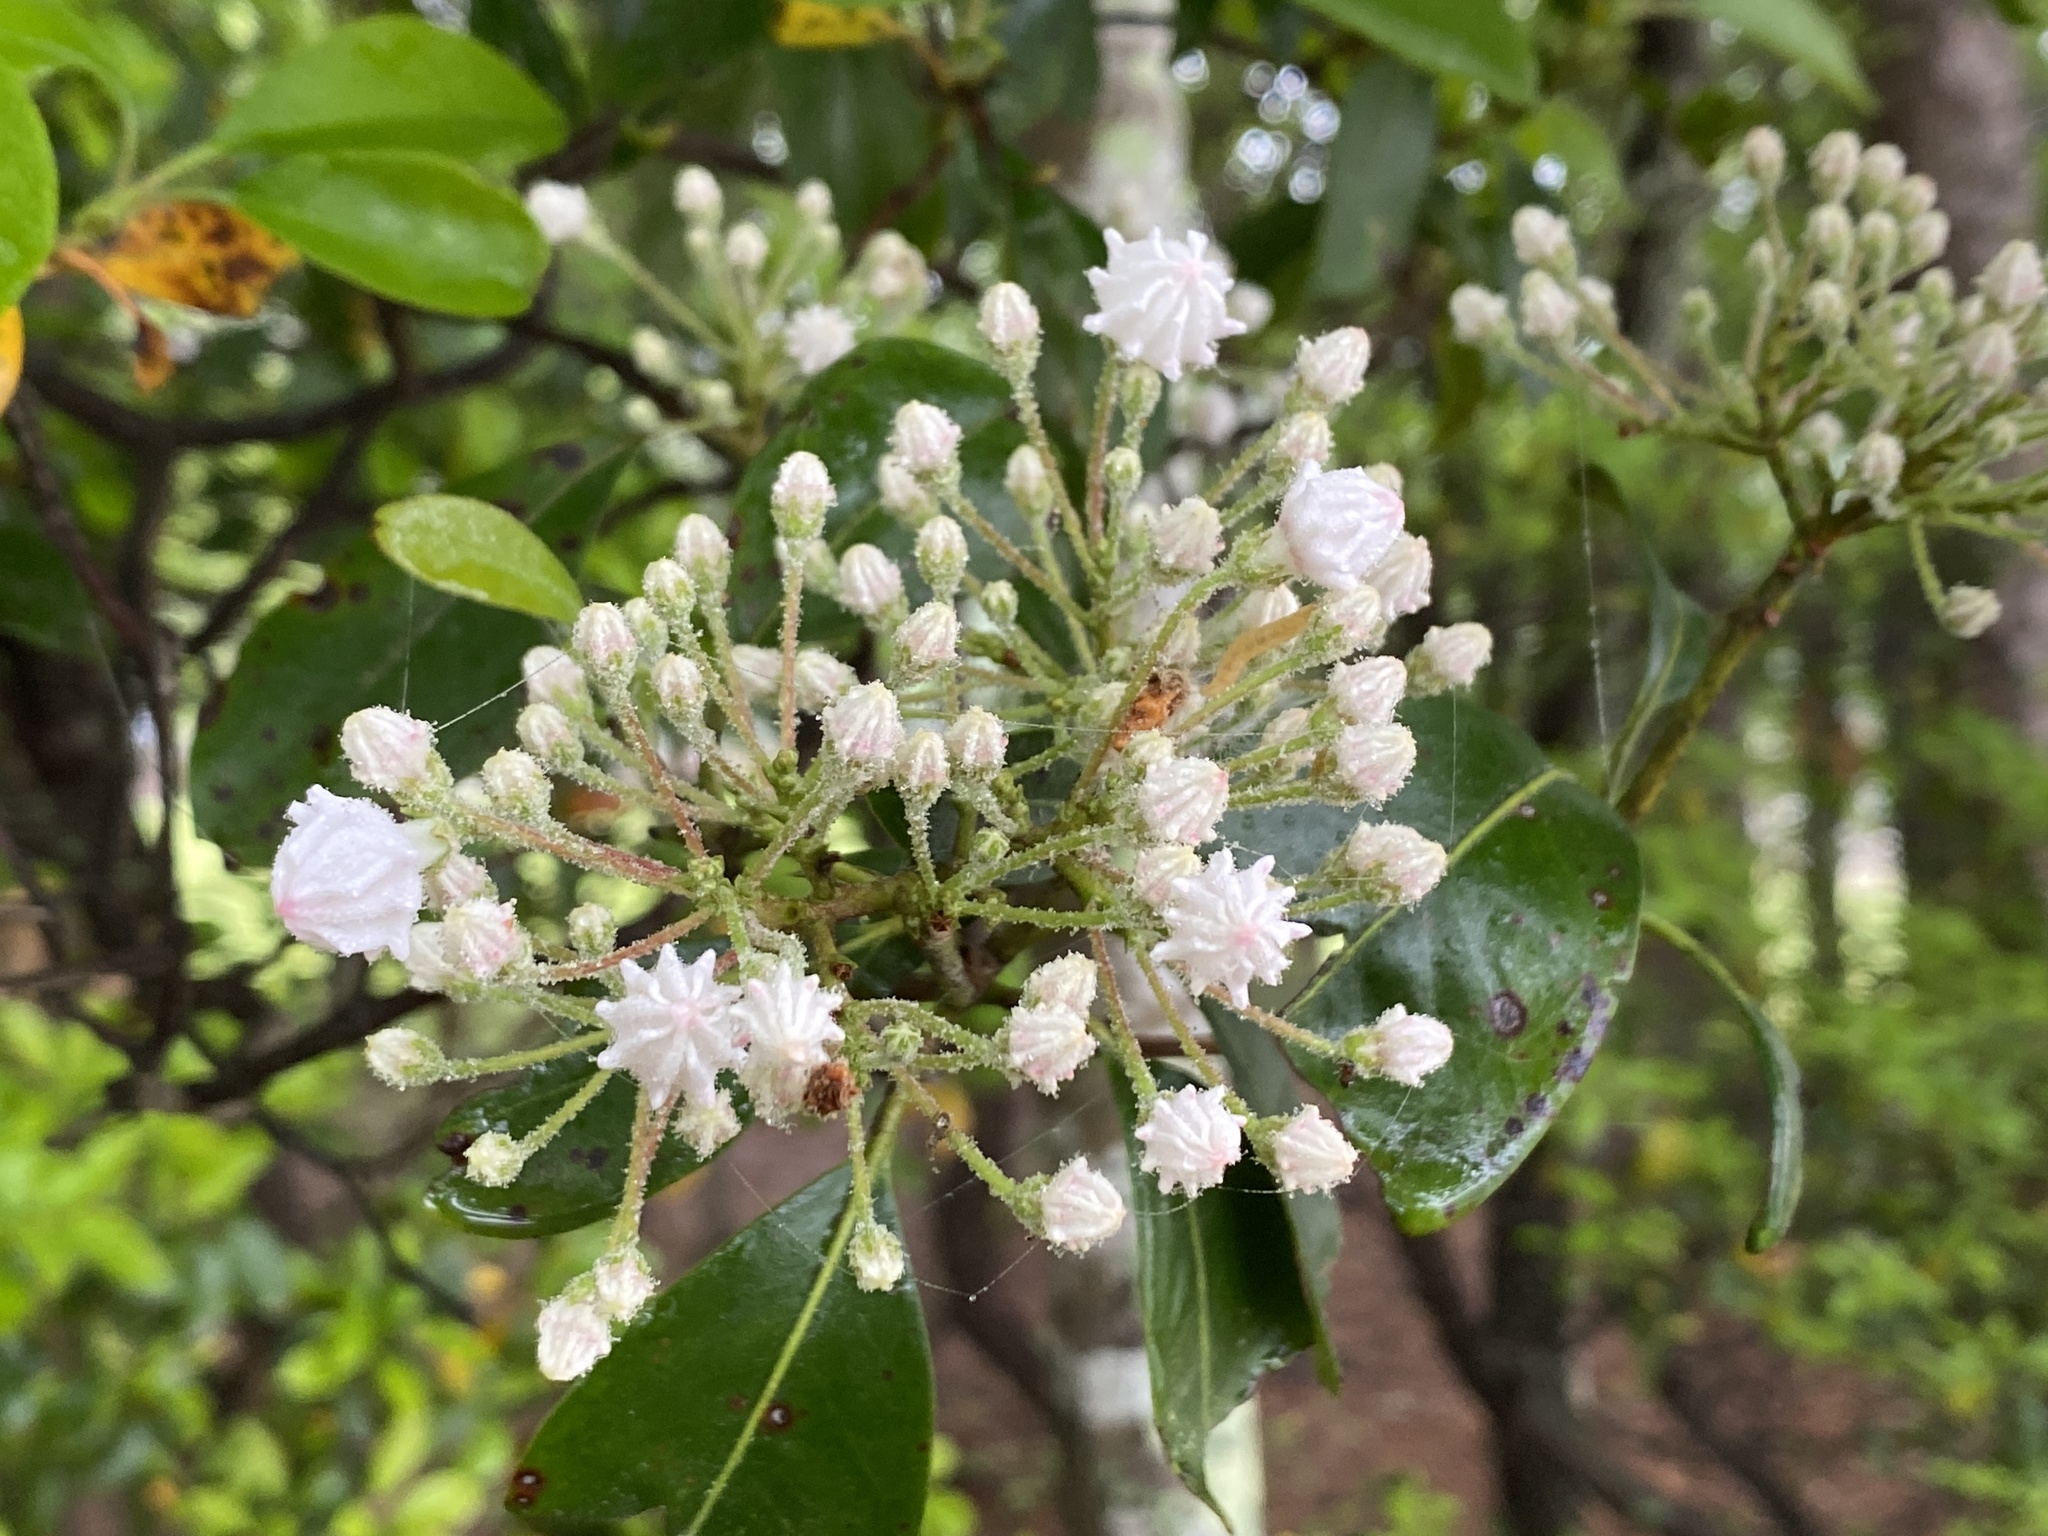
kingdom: Plantae
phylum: Tracheophyta
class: Magnoliopsida
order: Ericales
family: Ericaceae
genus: Kalmia
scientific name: Kalmia latifolia
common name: Mountain-laurel
